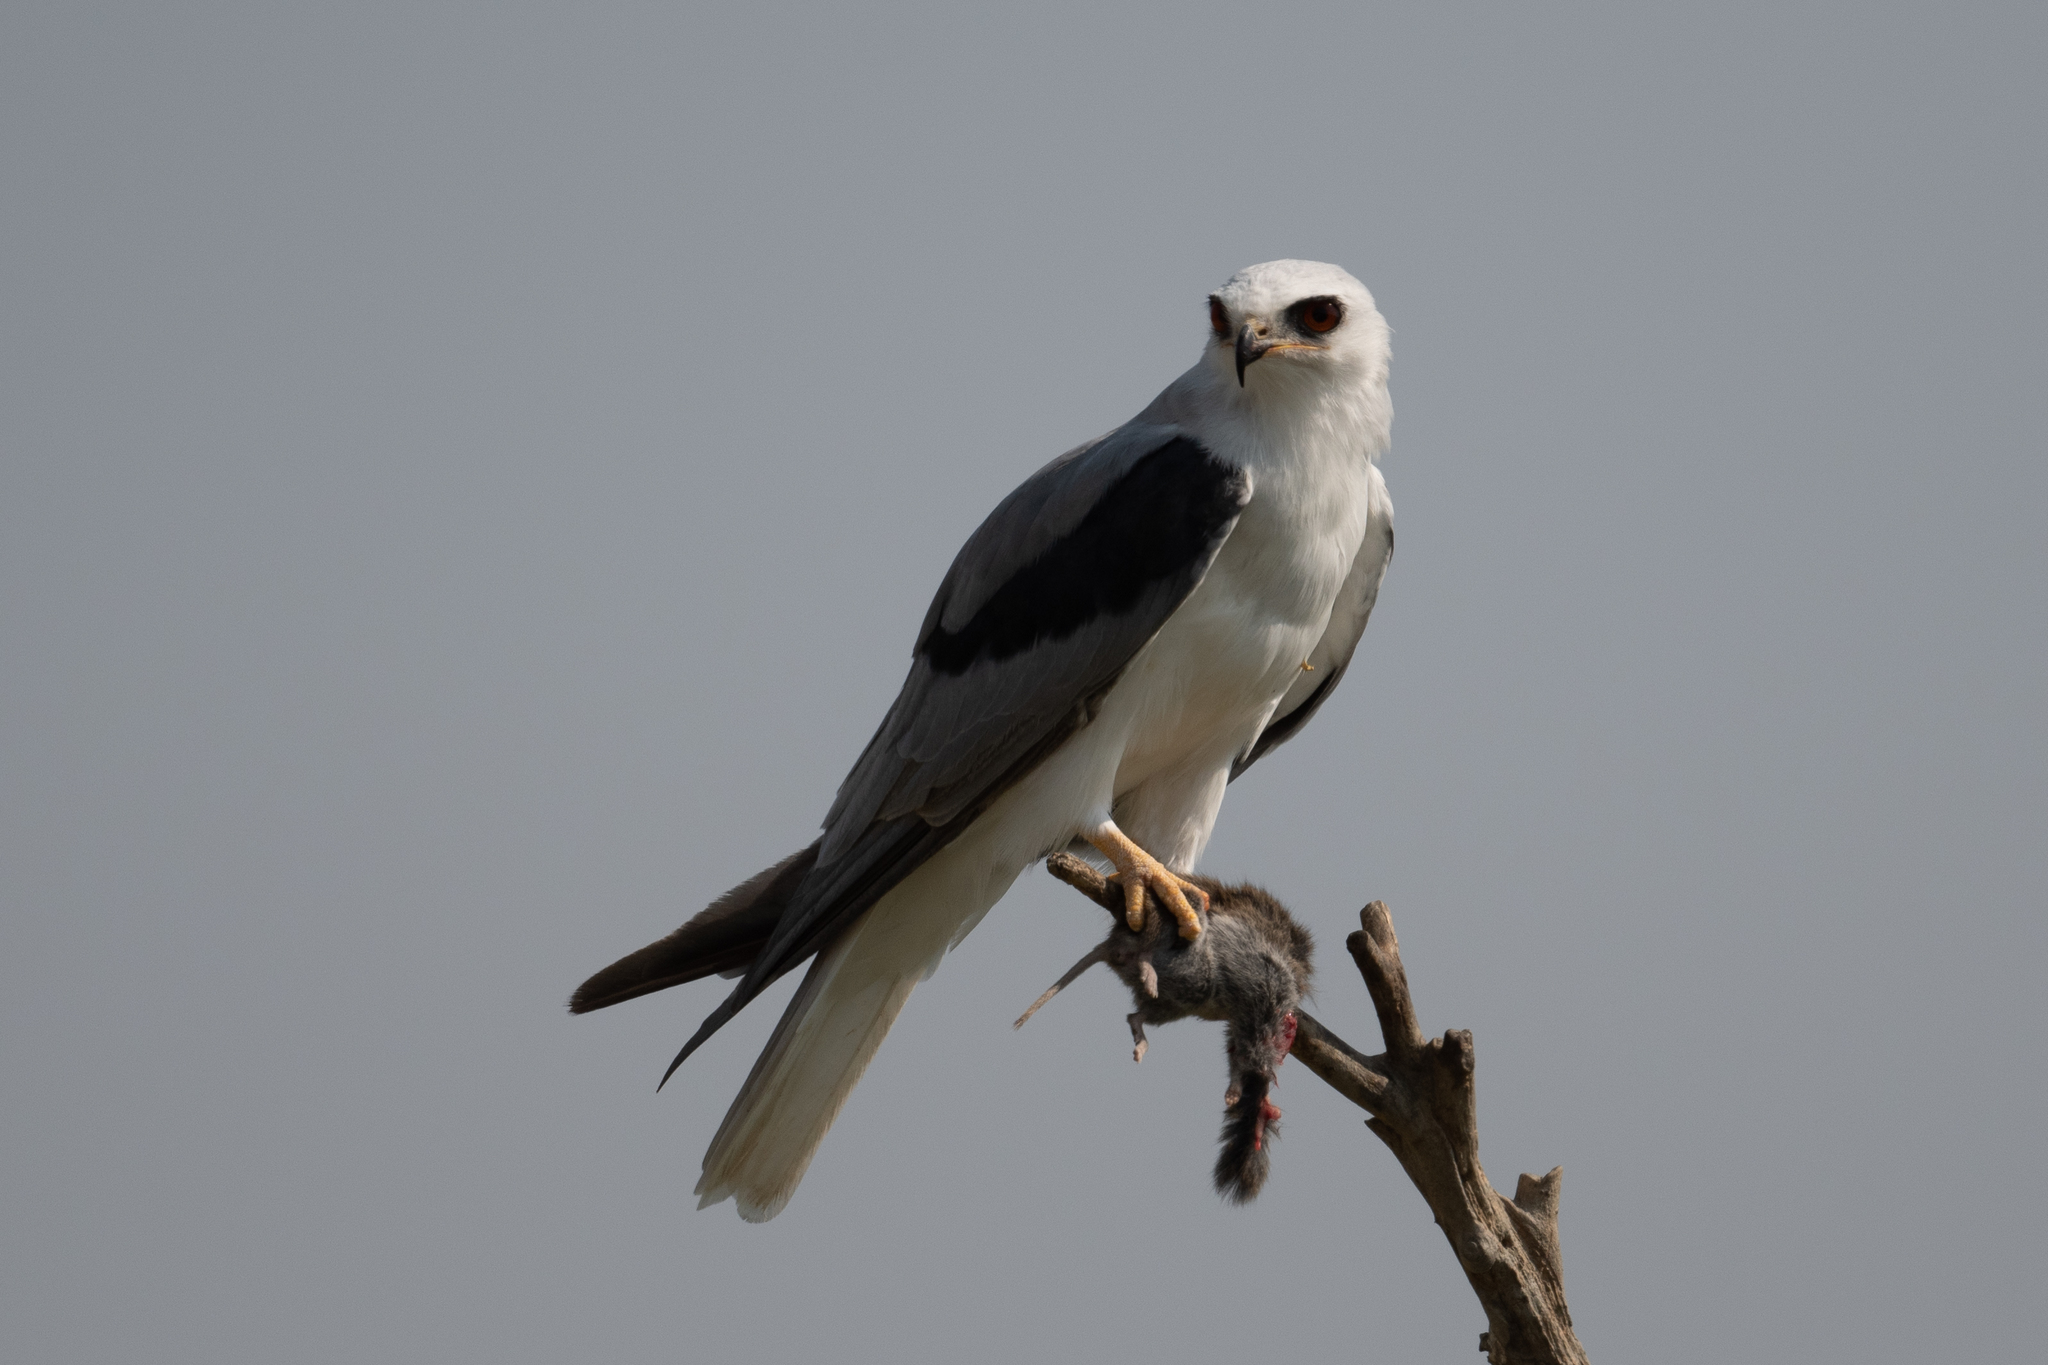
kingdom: Animalia
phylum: Chordata
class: Aves
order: Accipitriformes
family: Accipitridae
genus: Elanus
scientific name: Elanus leucurus
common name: White-tailed kite
